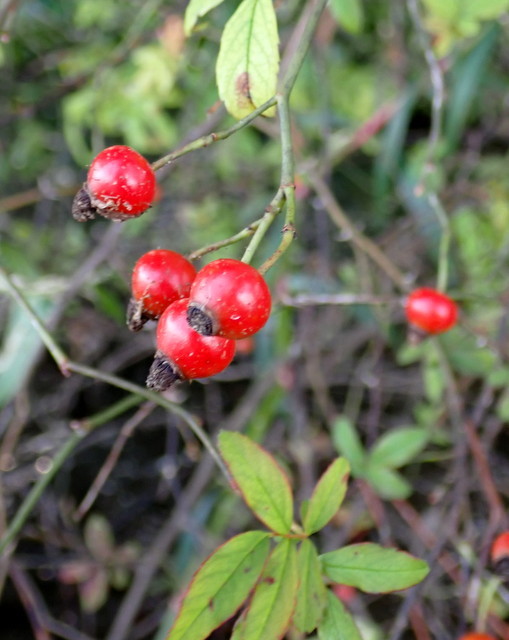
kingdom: Plantae
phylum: Tracheophyta
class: Magnoliopsida
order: Rosales
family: Rosaceae
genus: Rosa
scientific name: Rosa palustris
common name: Swamp rose
